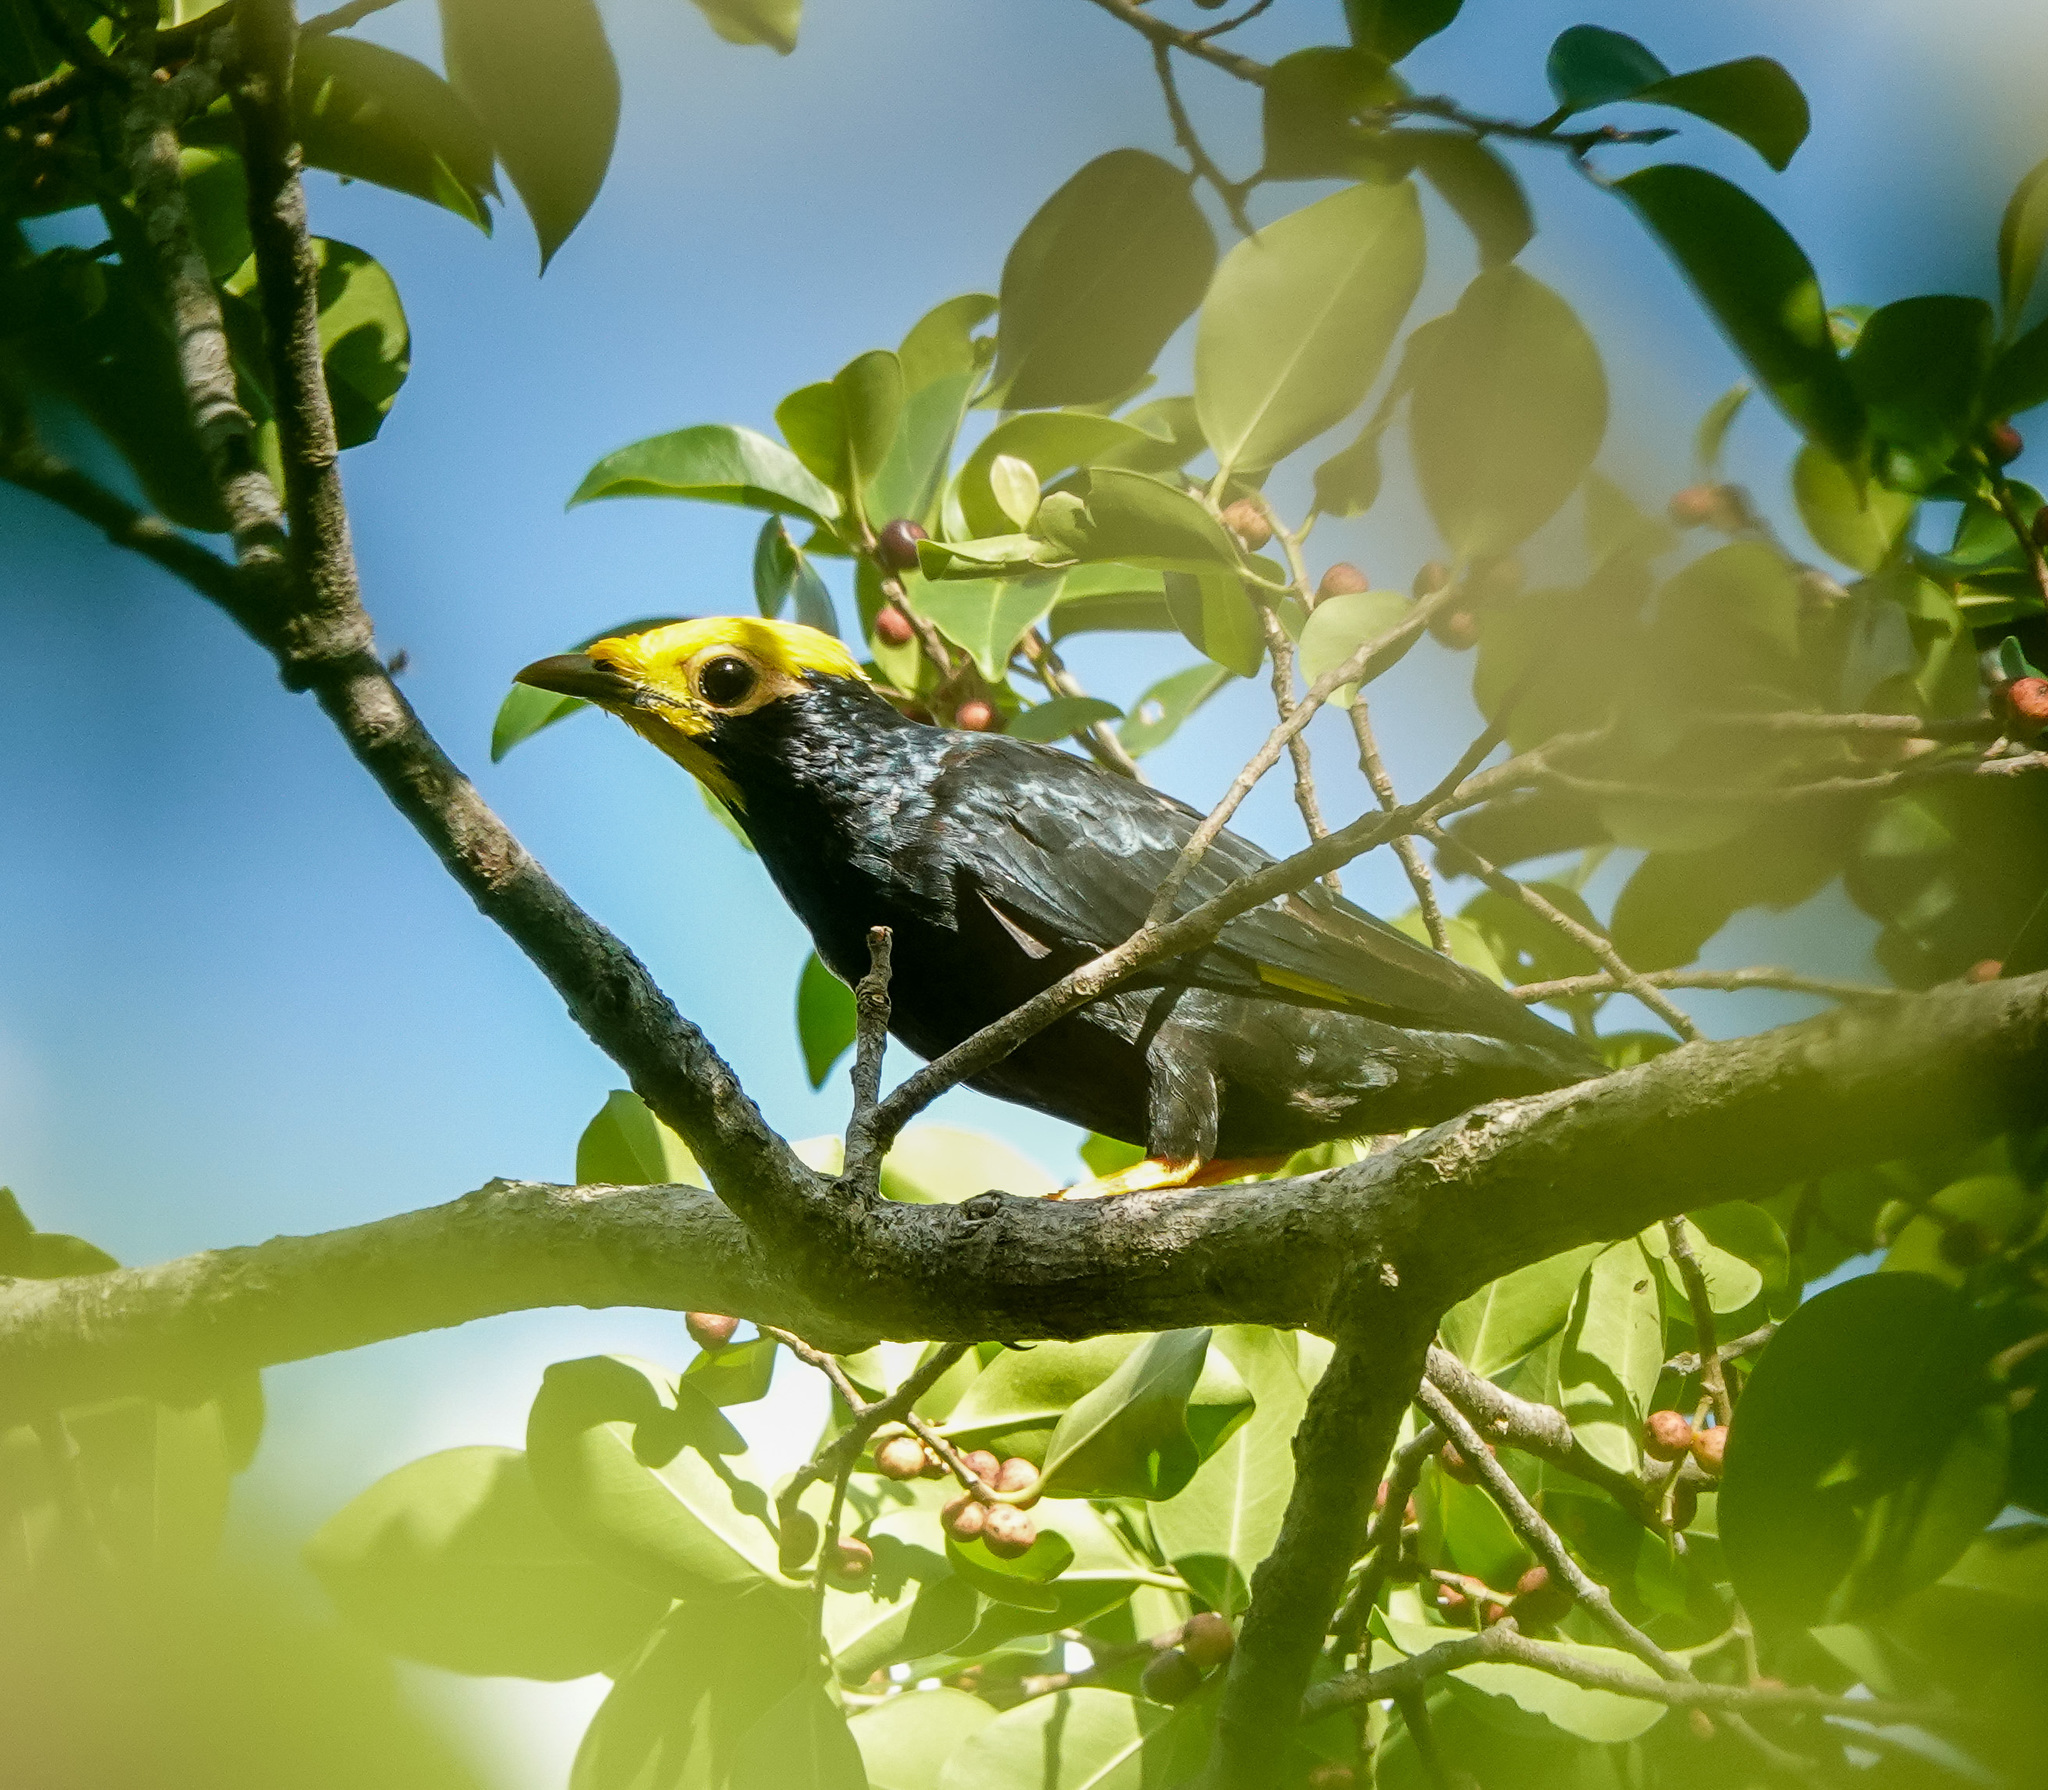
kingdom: Animalia
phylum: Chordata
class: Aves
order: Passeriformes
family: Sturnidae
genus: Ampeliceps
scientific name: Ampeliceps coronatus
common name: Golden-crested myna
